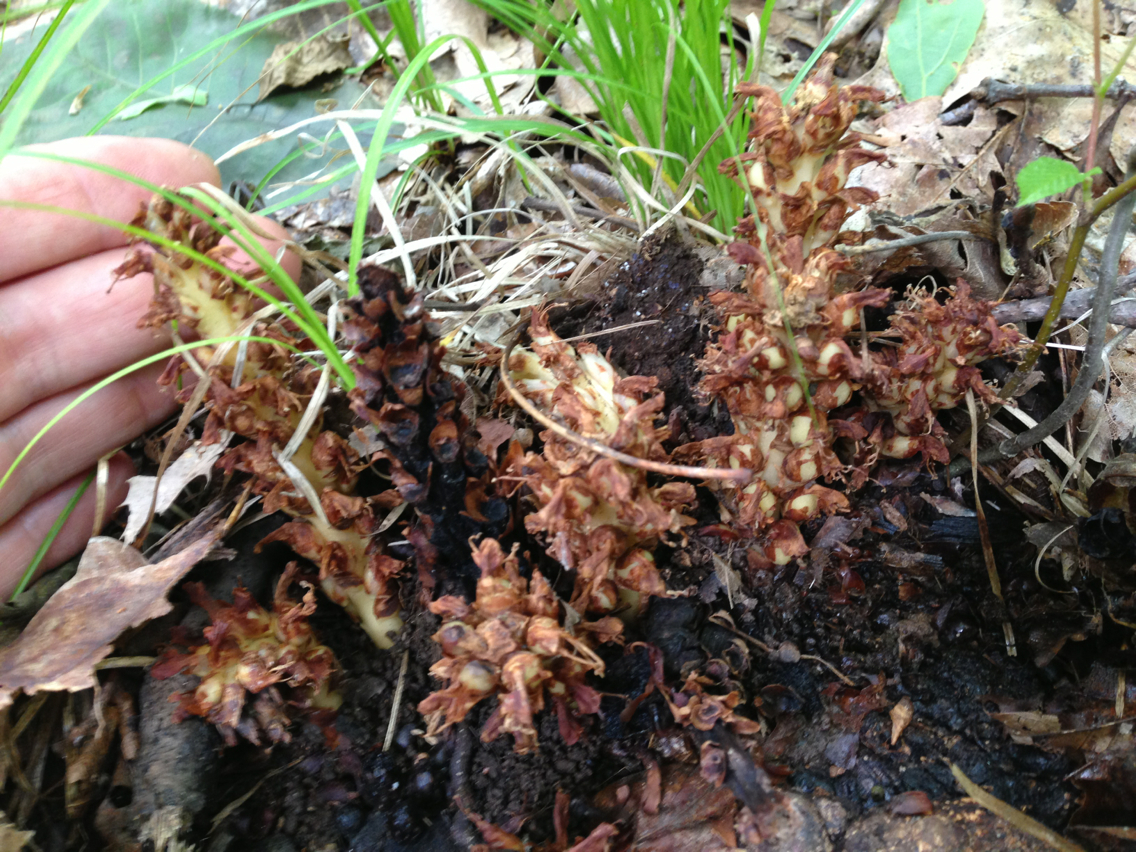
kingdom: Plantae
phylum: Tracheophyta
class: Magnoliopsida
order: Lamiales
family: Orobanchaceae
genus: Conopholis
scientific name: Conopholis americana
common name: American cancer-root
